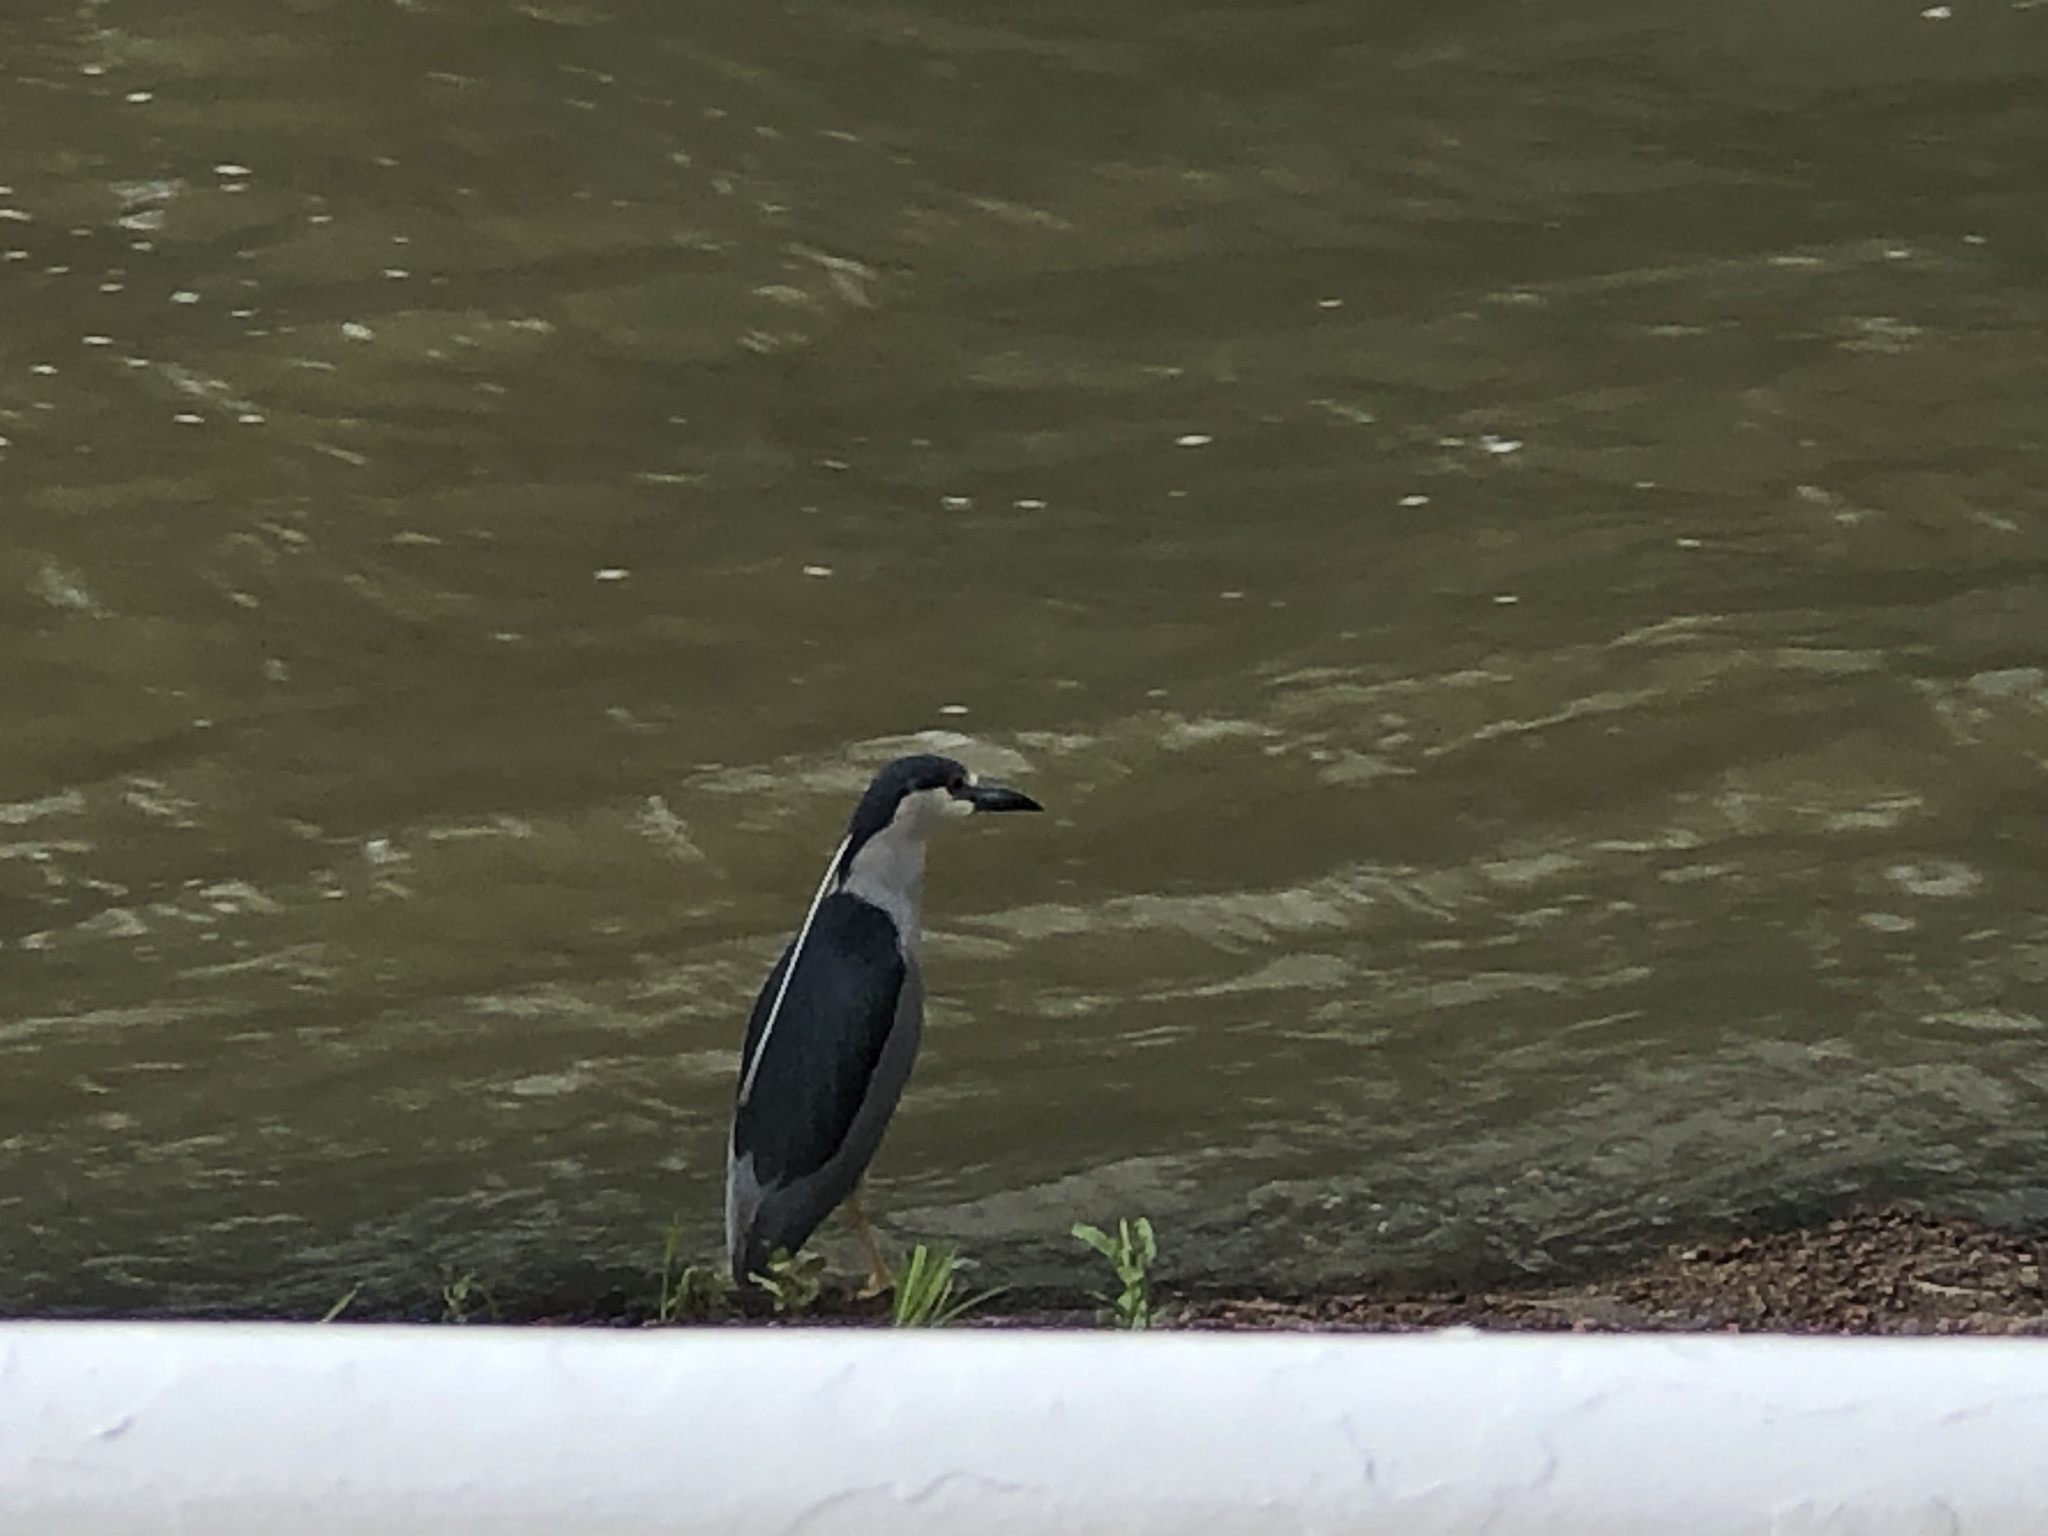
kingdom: Animalia
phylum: Chordata
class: Aves
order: Pelecaniformes
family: Ardeidae
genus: Nycticorax
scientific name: Nycticorax nycticorax
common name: Black-crowned night heron
